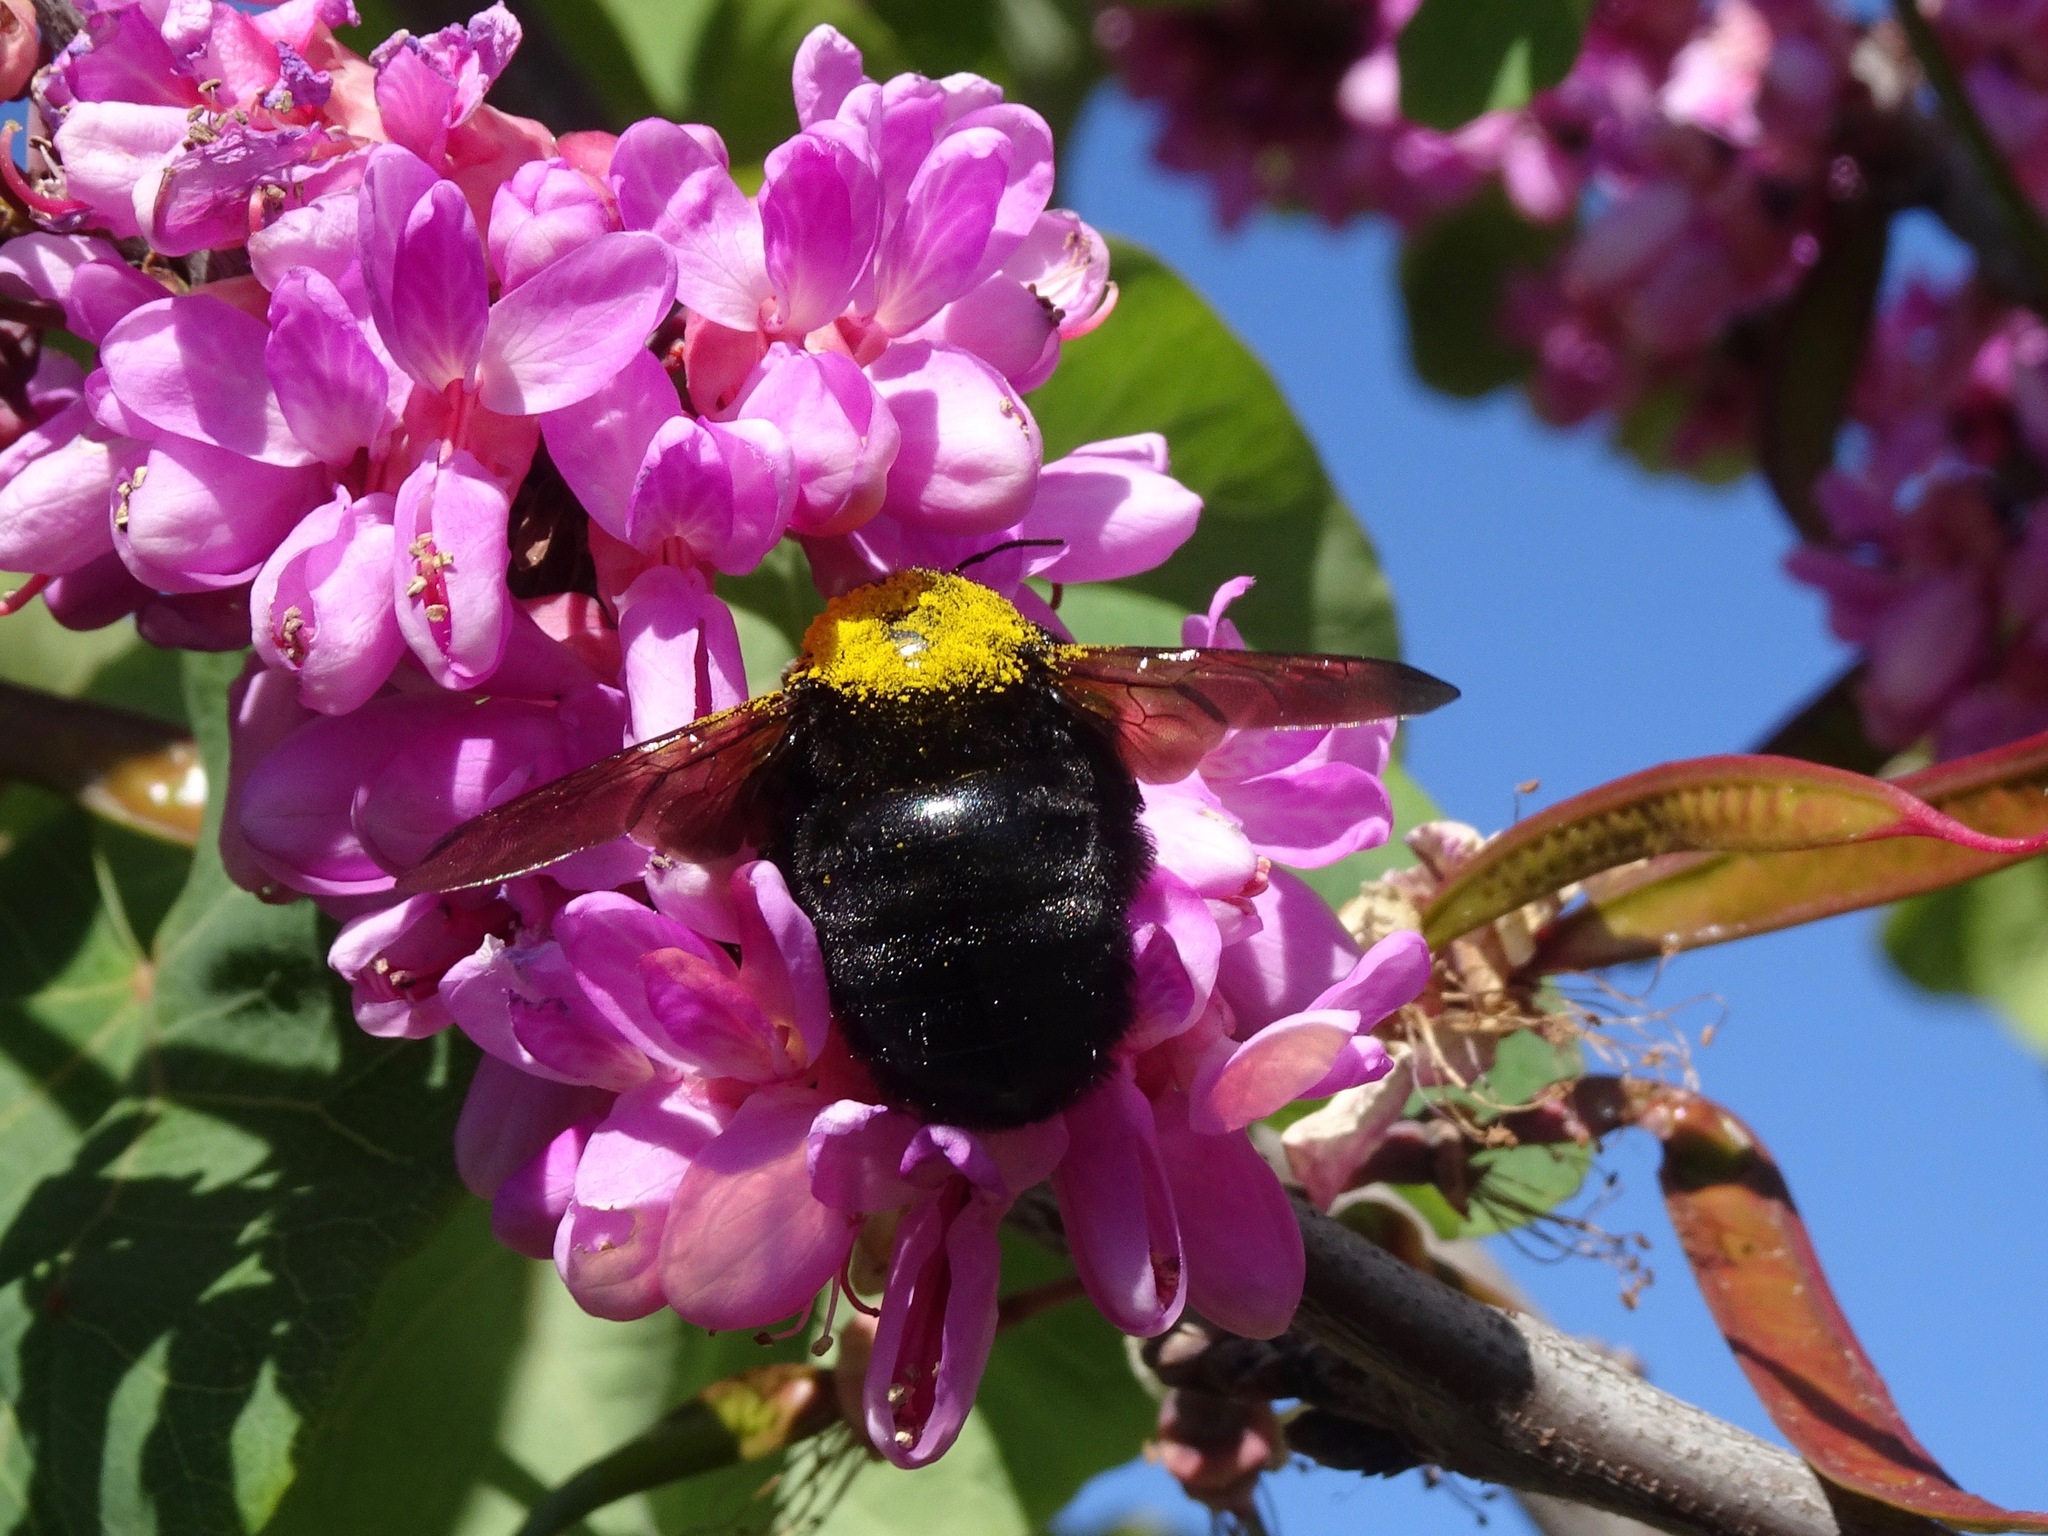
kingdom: Animalia
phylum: Arthropoda
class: Insecta
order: Hymenoptera
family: Apidae
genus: Xylocopa
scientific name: Xylocopa sonorina
